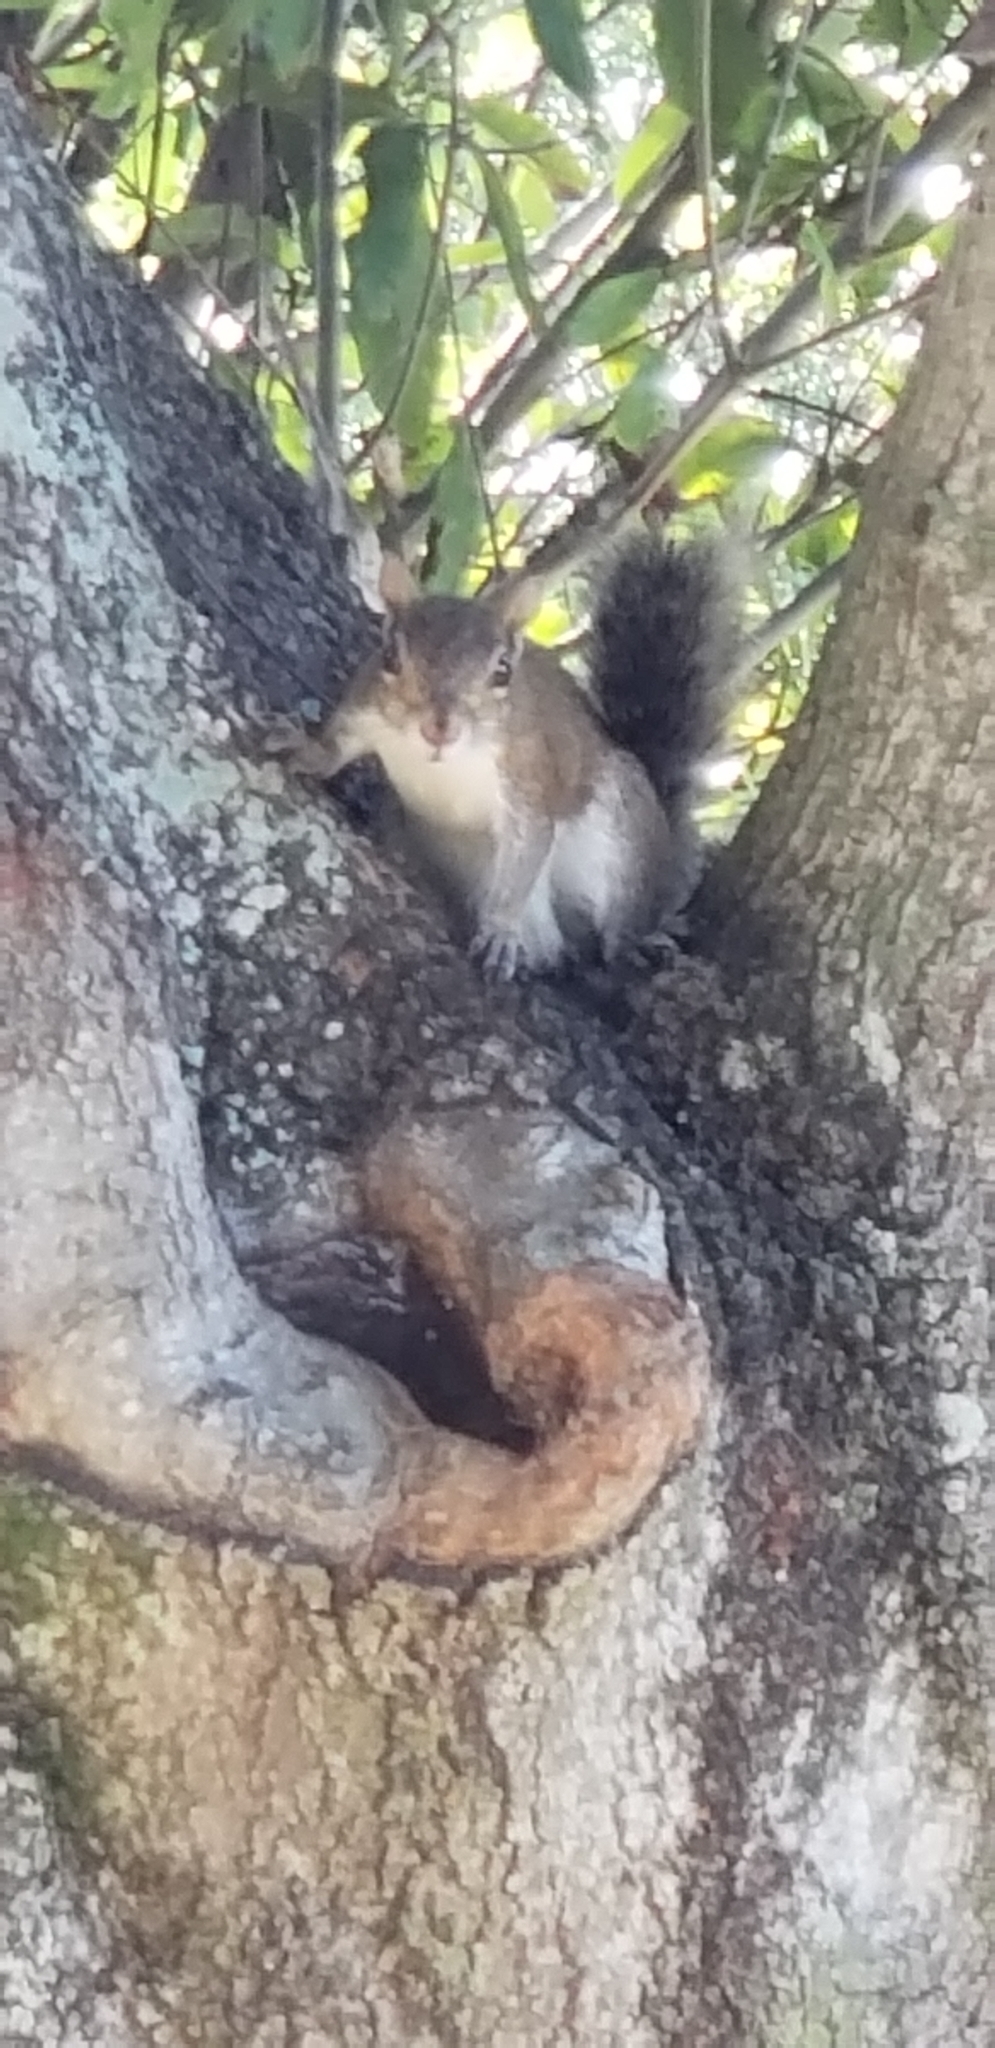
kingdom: Animalia
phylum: Chordata
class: Mammalia
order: Rodentia
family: Sciuridae
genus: Sciurus
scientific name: Sciurus carolinensis
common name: Eastern gray squirrel
